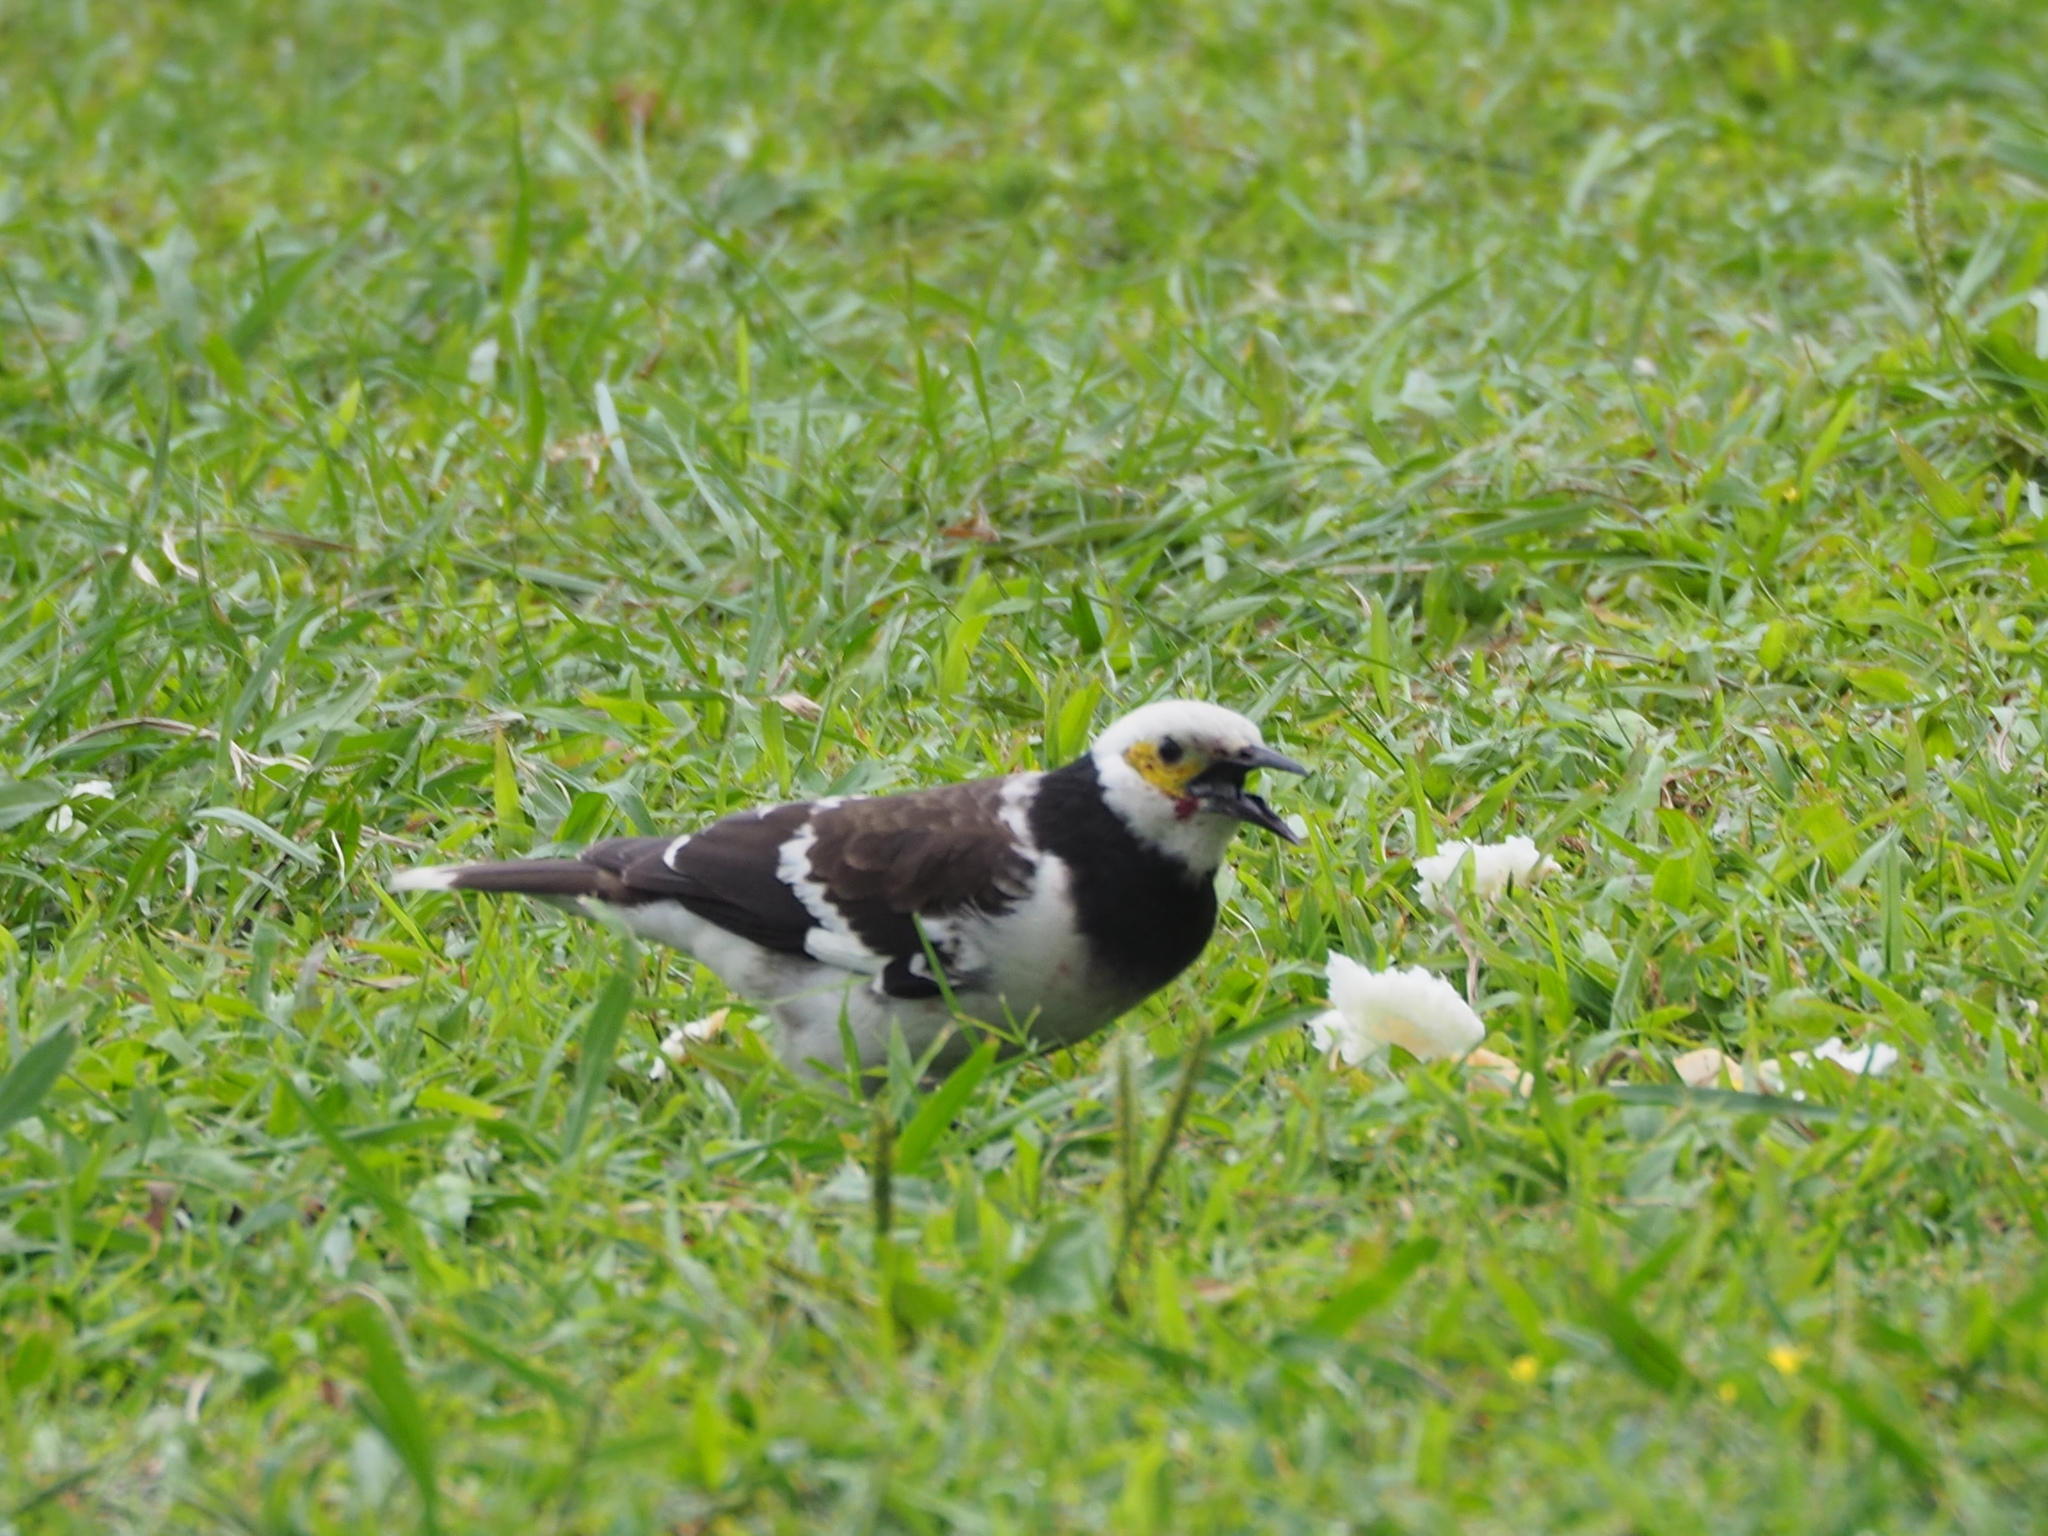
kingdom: Animalia
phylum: Chordata
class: Aves
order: Passeriformes
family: Sturnidae
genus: Gracupica
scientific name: Gracupica nigricollis
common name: Black-collared starling
